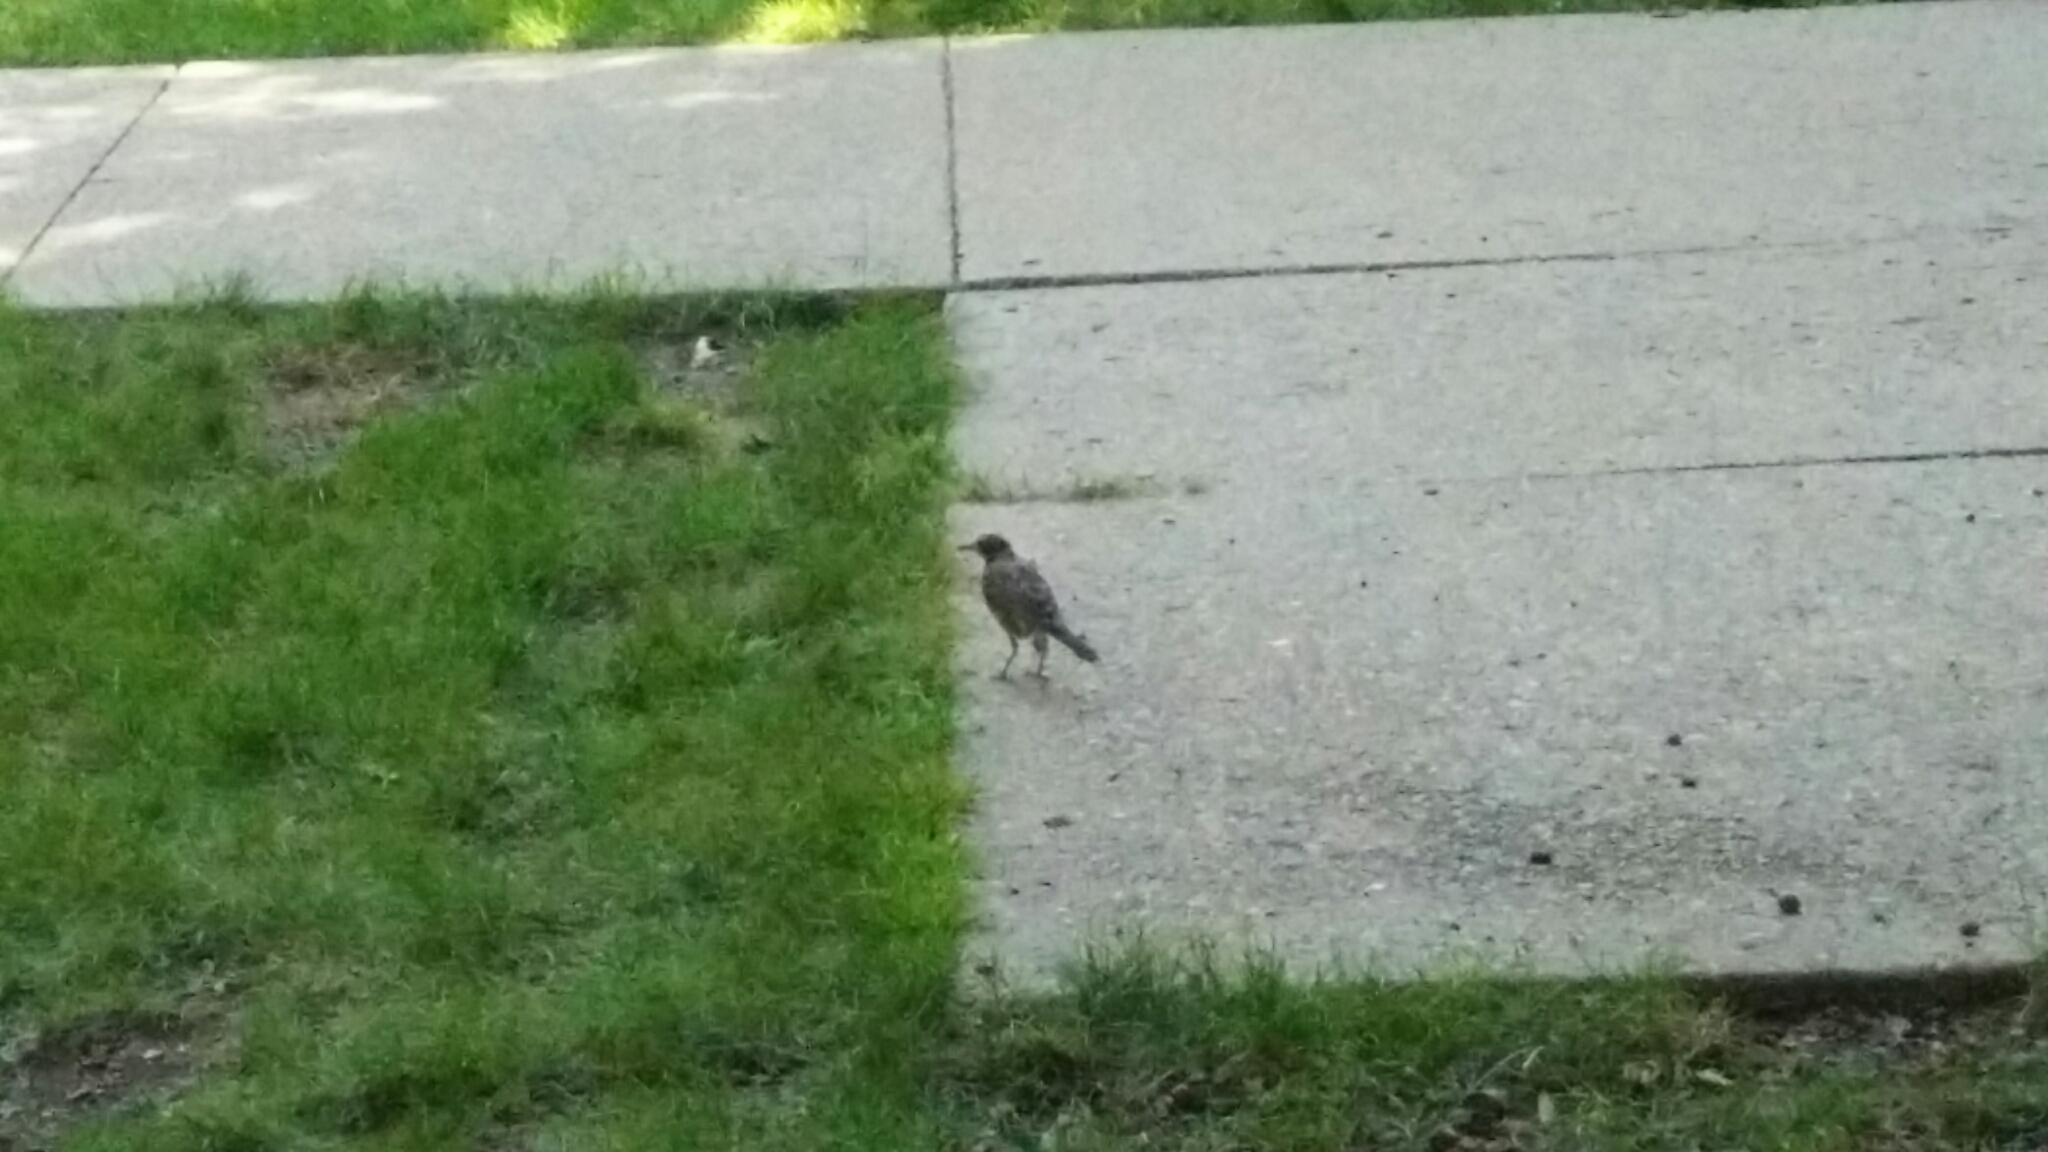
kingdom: Animalia
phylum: Chordata
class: Aves
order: Passeriformes
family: Turdidae
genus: Turdus
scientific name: Turdus migratorius
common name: American robin
